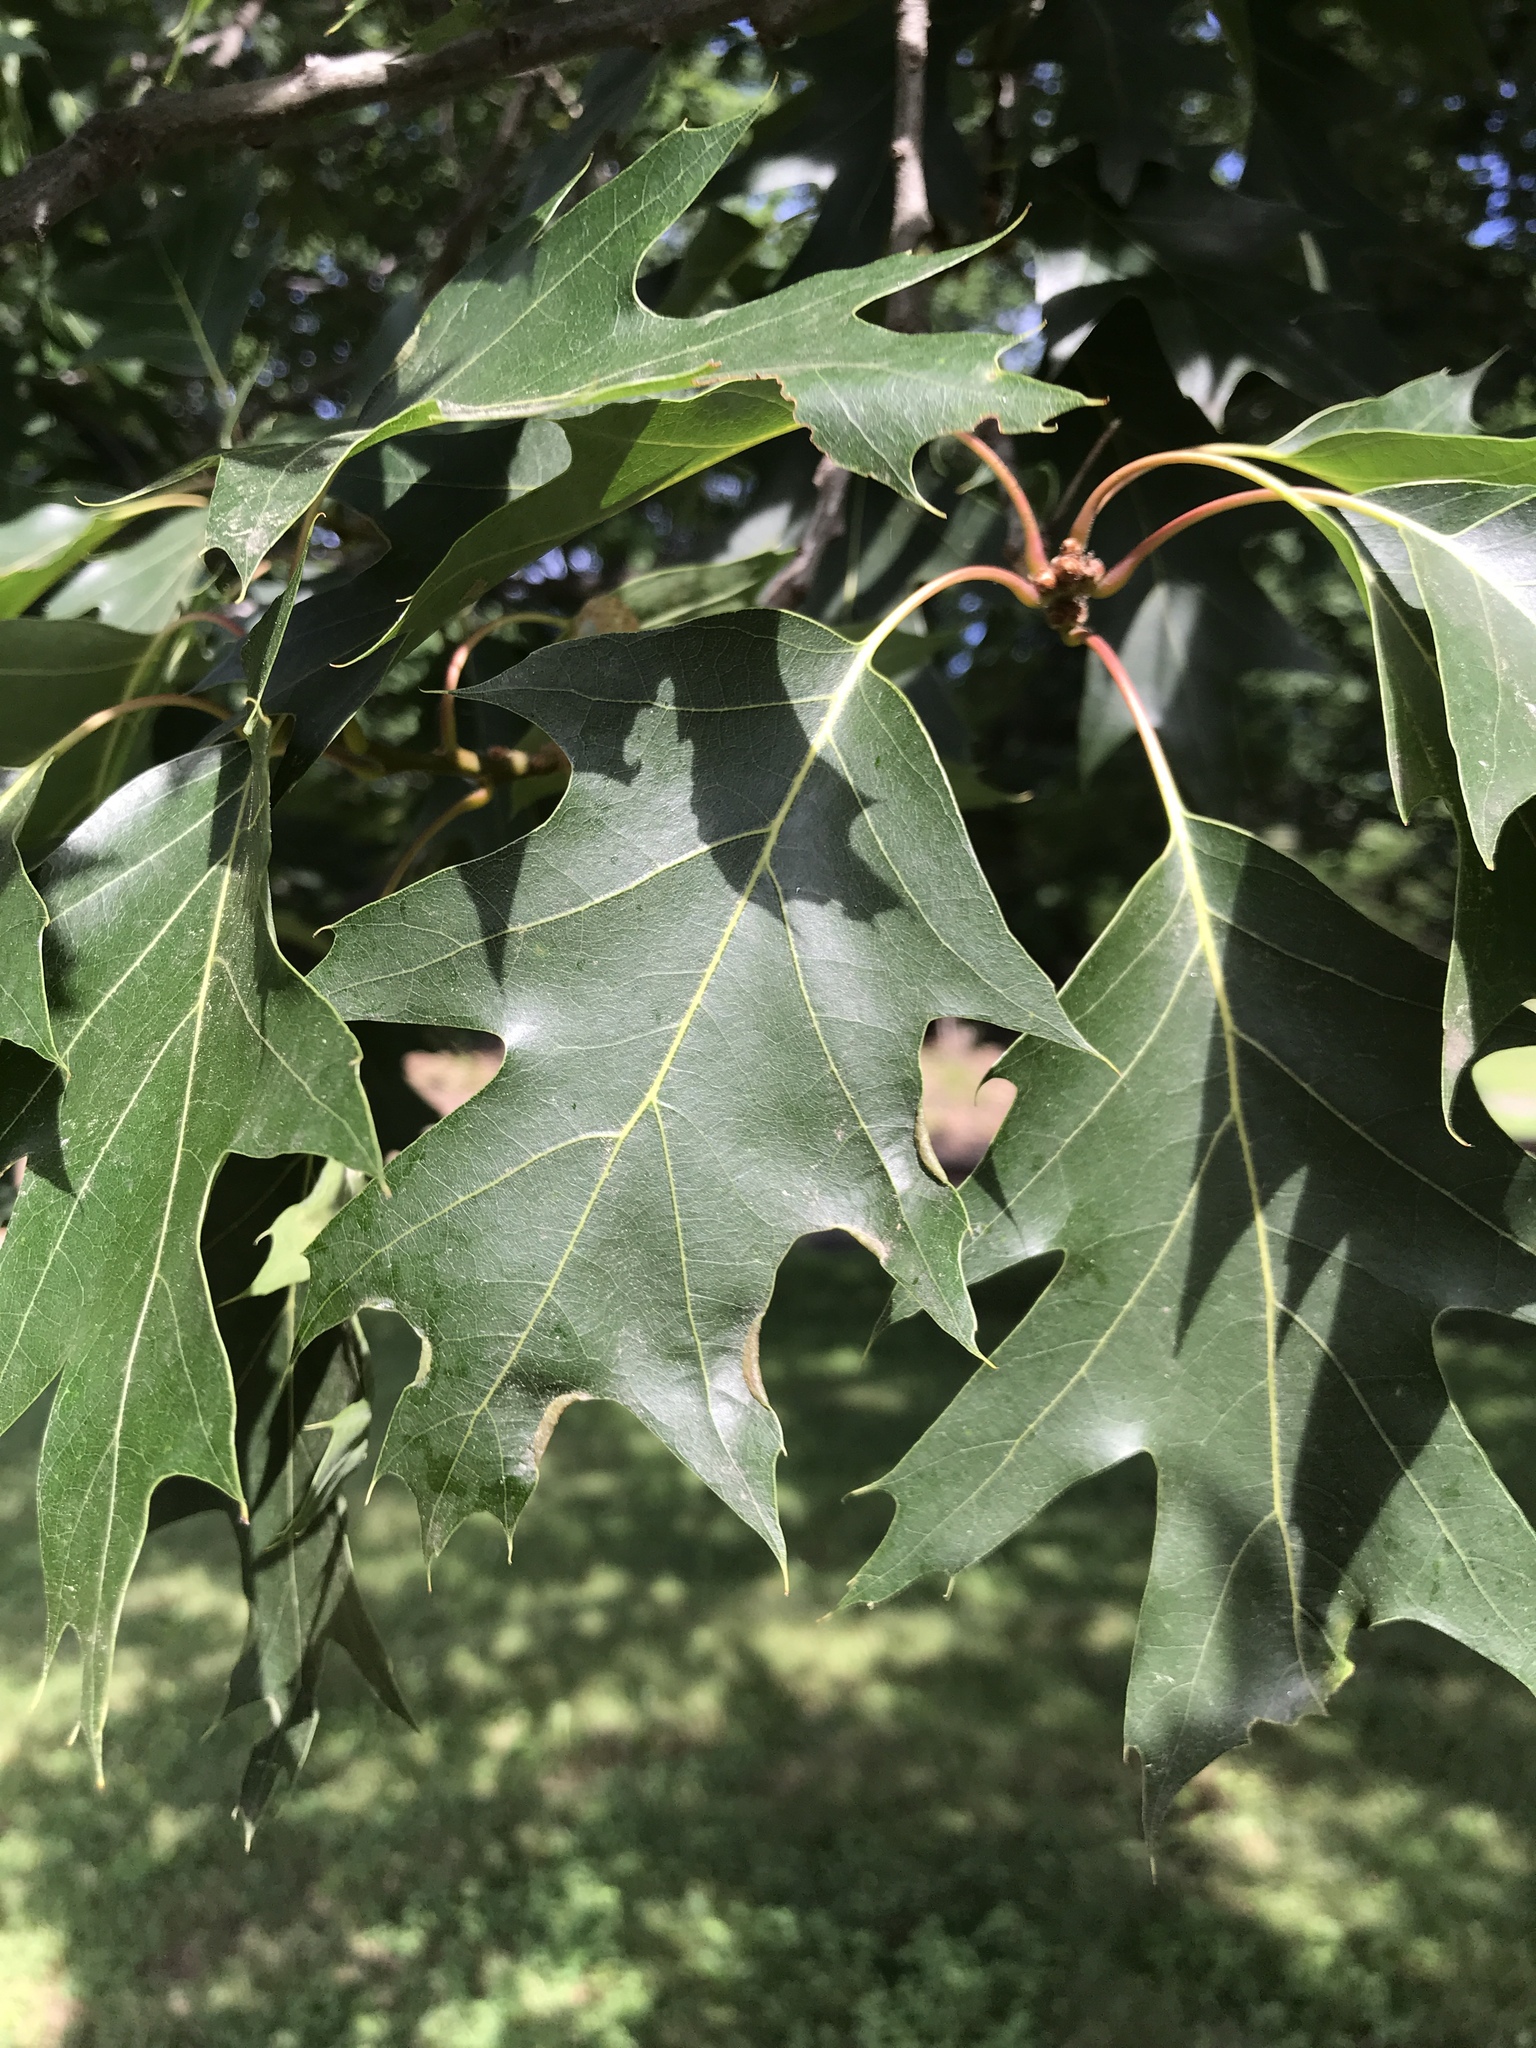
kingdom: Plantae
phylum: Tracheophyta
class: Magnoliopsida
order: Fagales
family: Fagaceae
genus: Quercus
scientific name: Quercus rubra
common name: Red oak
